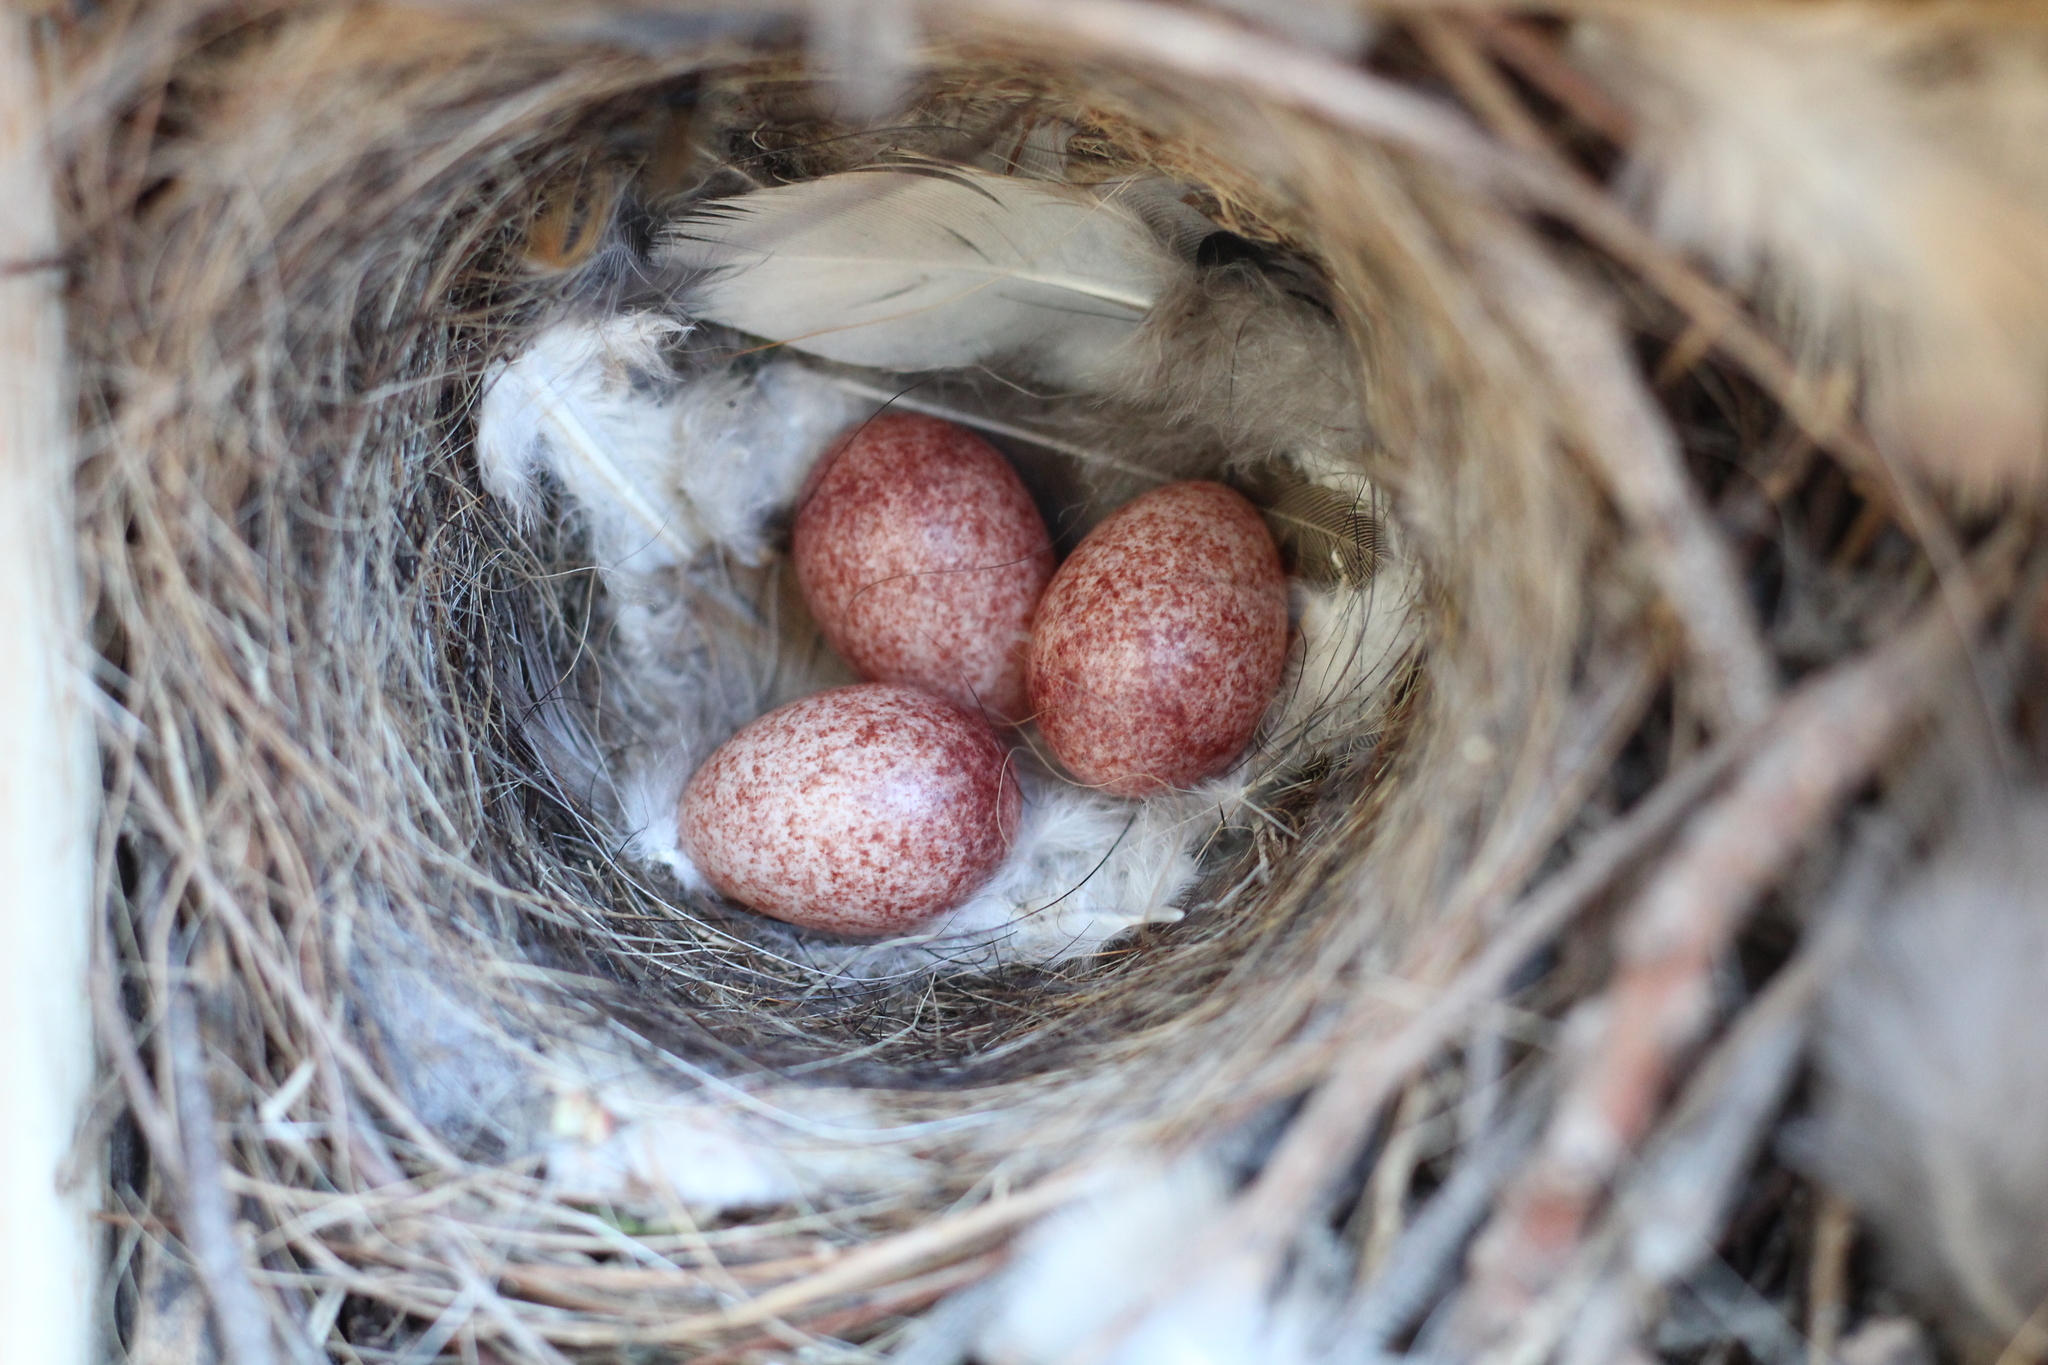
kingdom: Animalia
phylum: Chordata
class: Aves
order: Passeriformes
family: Troglodytidae
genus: Troglodytes
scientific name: Troglodytes aedon
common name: House wren
